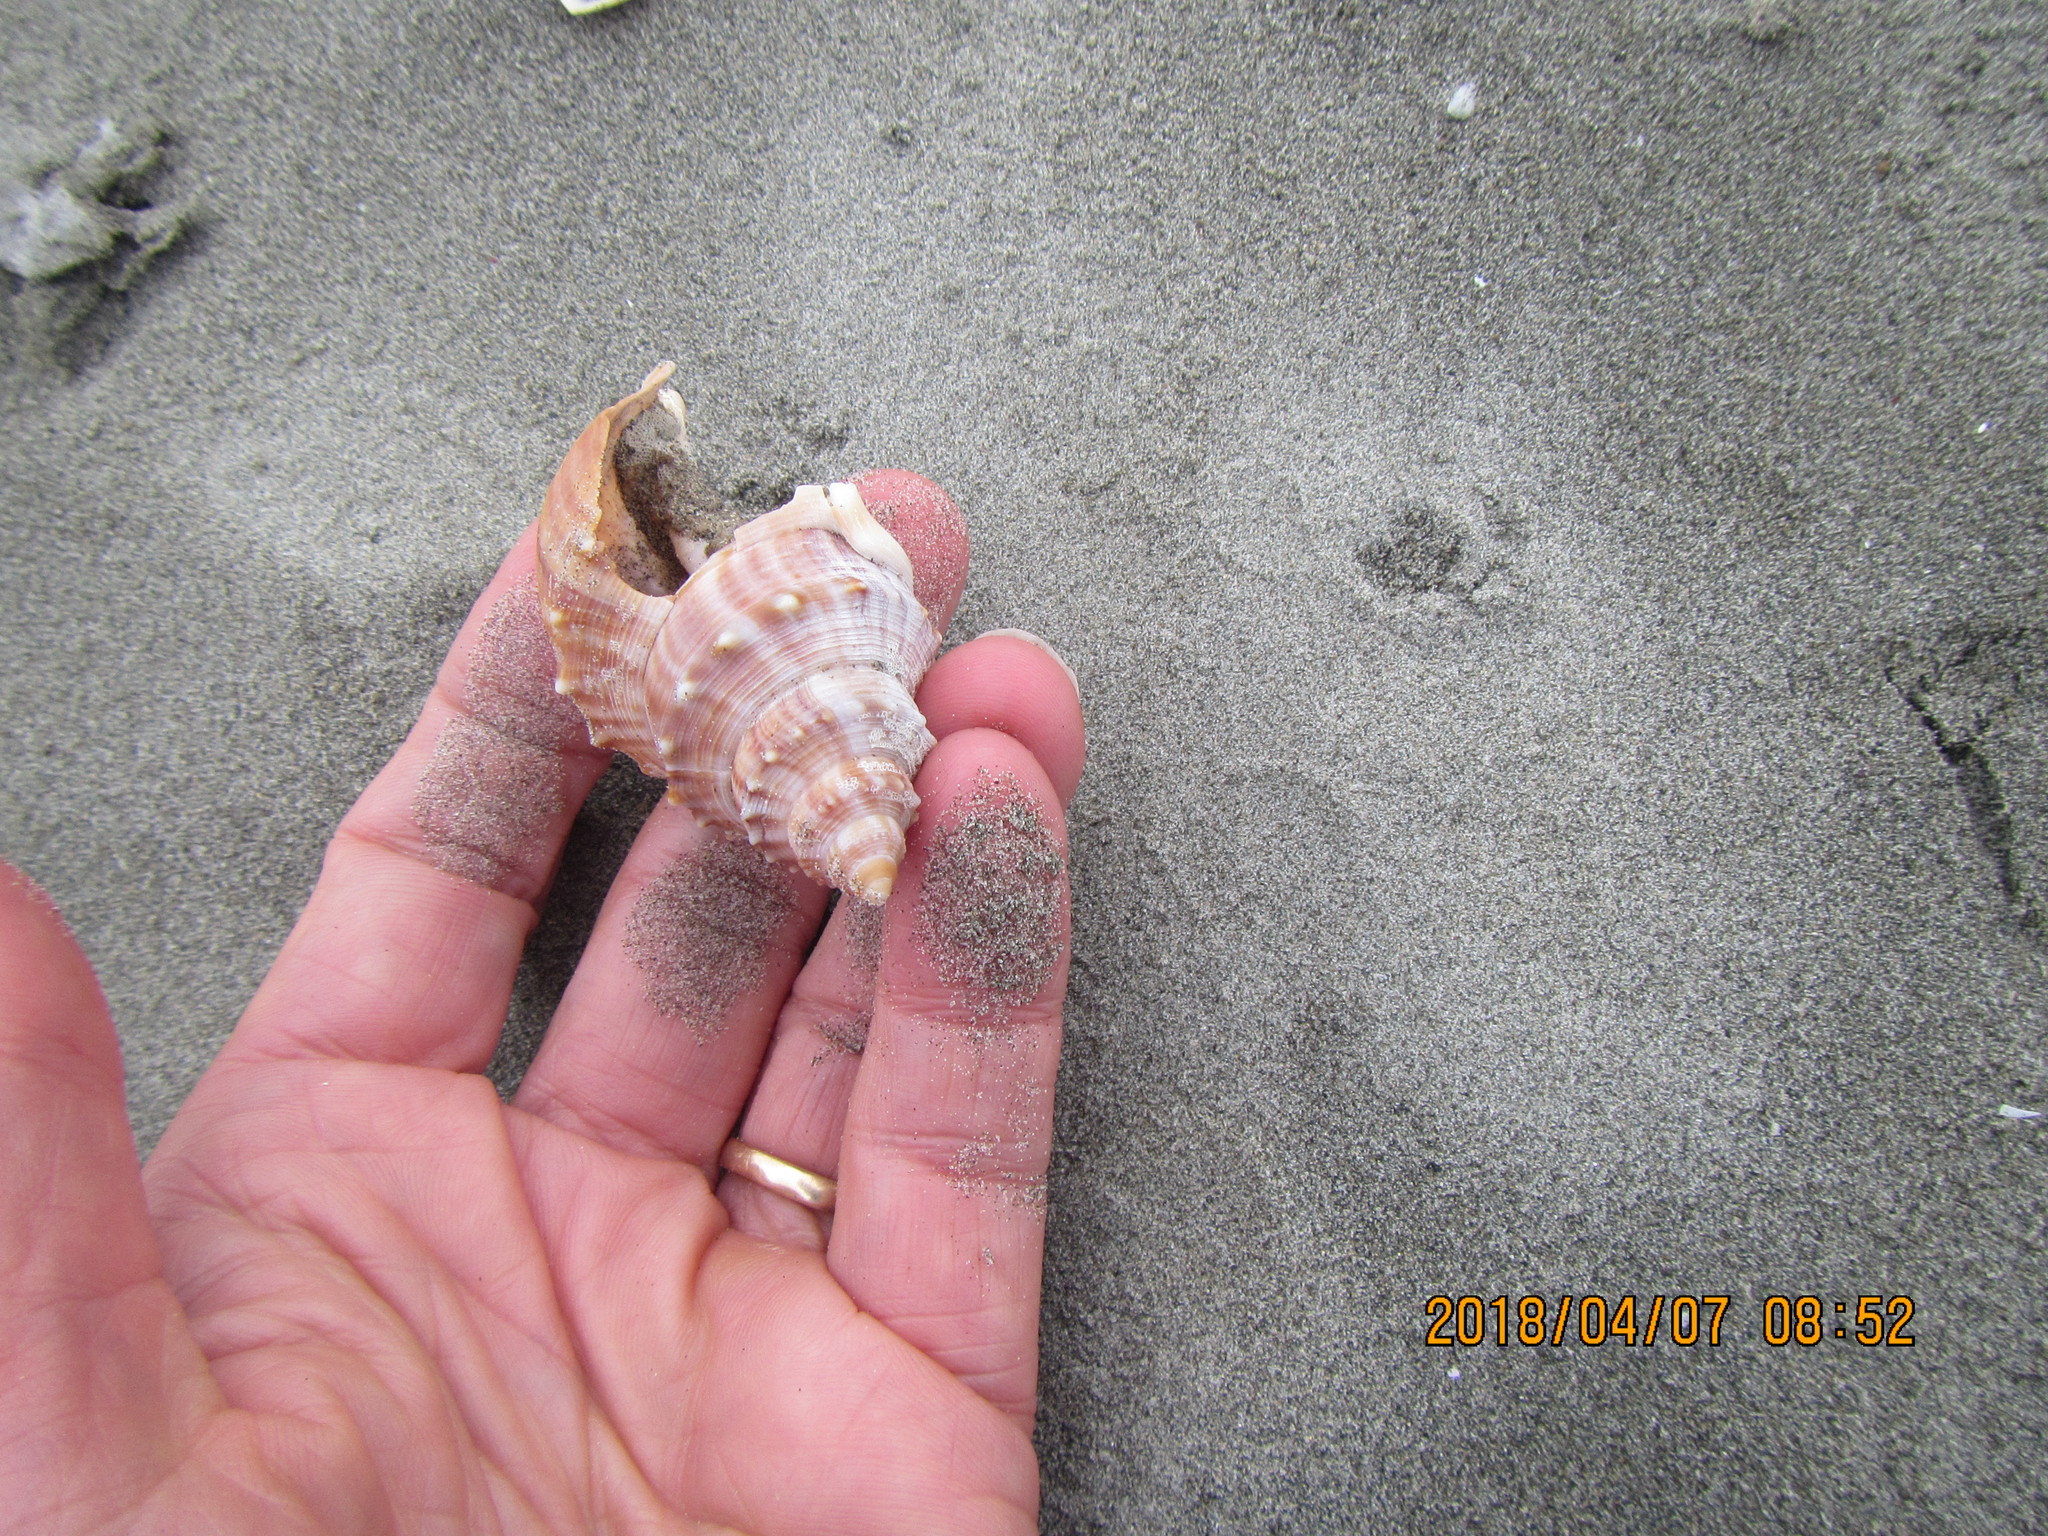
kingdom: Animalia
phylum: Mollusca
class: Gastropoda
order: Littorinimorpha
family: Struthiolariidae
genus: Struthiolaria
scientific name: Struthiolaria papulosa
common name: Large ostrich foot
